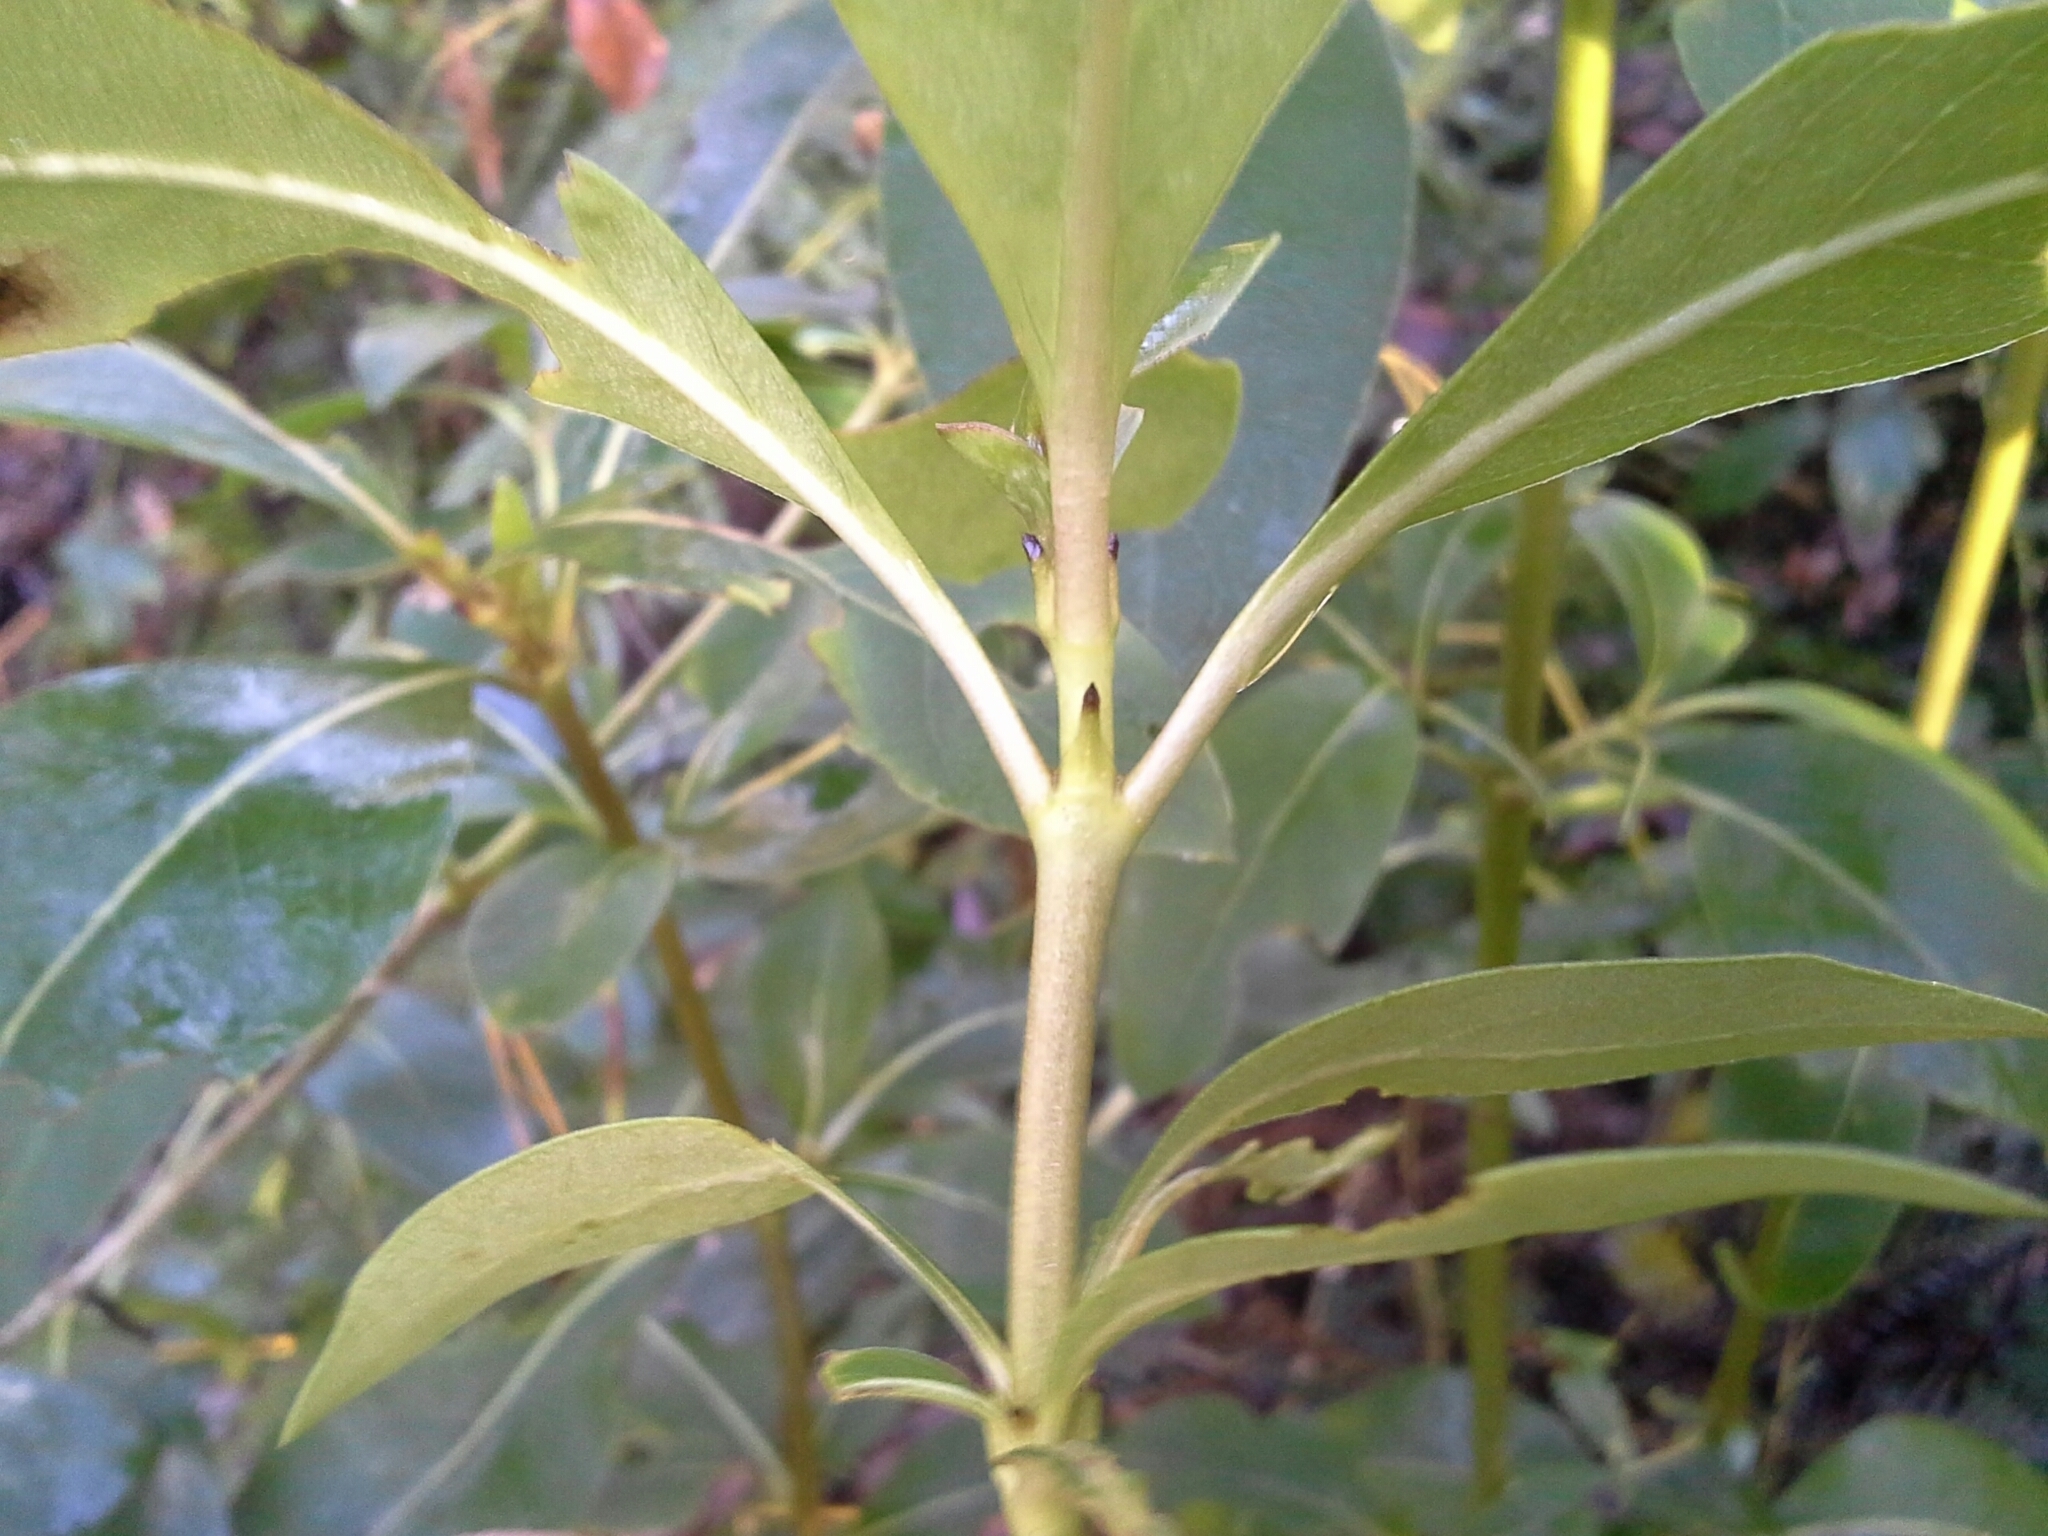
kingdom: Plantae
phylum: Tracheophyta
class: Magnoliopsida
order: Gentianales
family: Rubiaceae
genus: Coprosma
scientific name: Coprosma robusta
